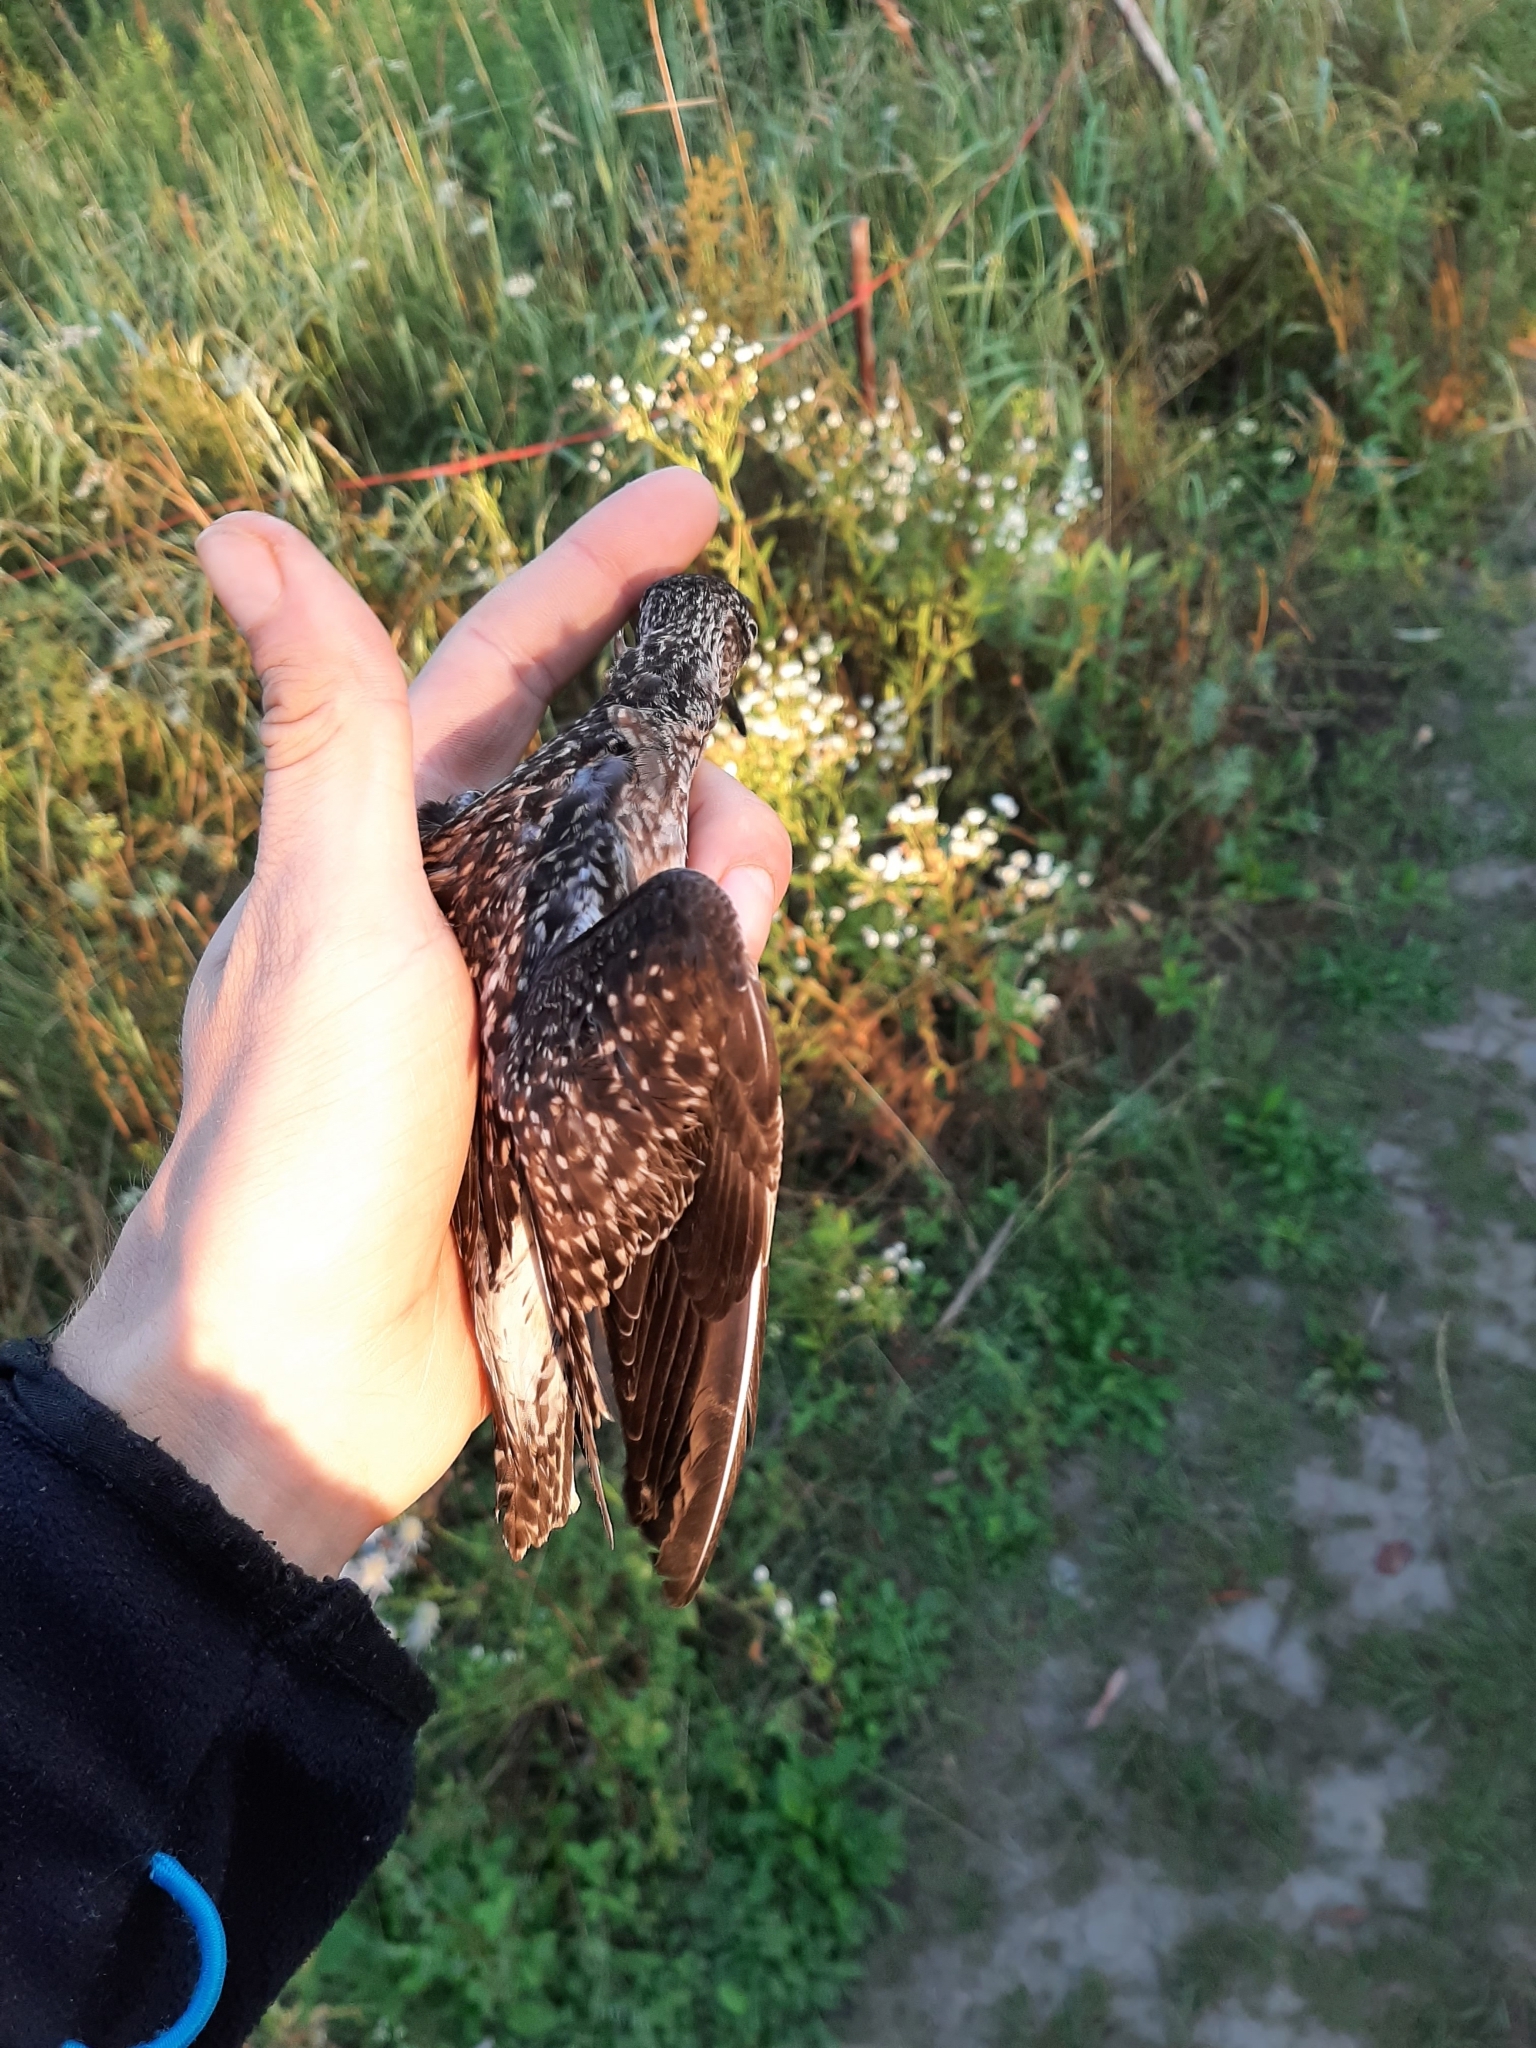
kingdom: Animalia
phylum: Chordata
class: Aves
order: Charadriiformes
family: Scolopacidae
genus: Tringa
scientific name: Tringa glareola
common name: Wood sandpiper
